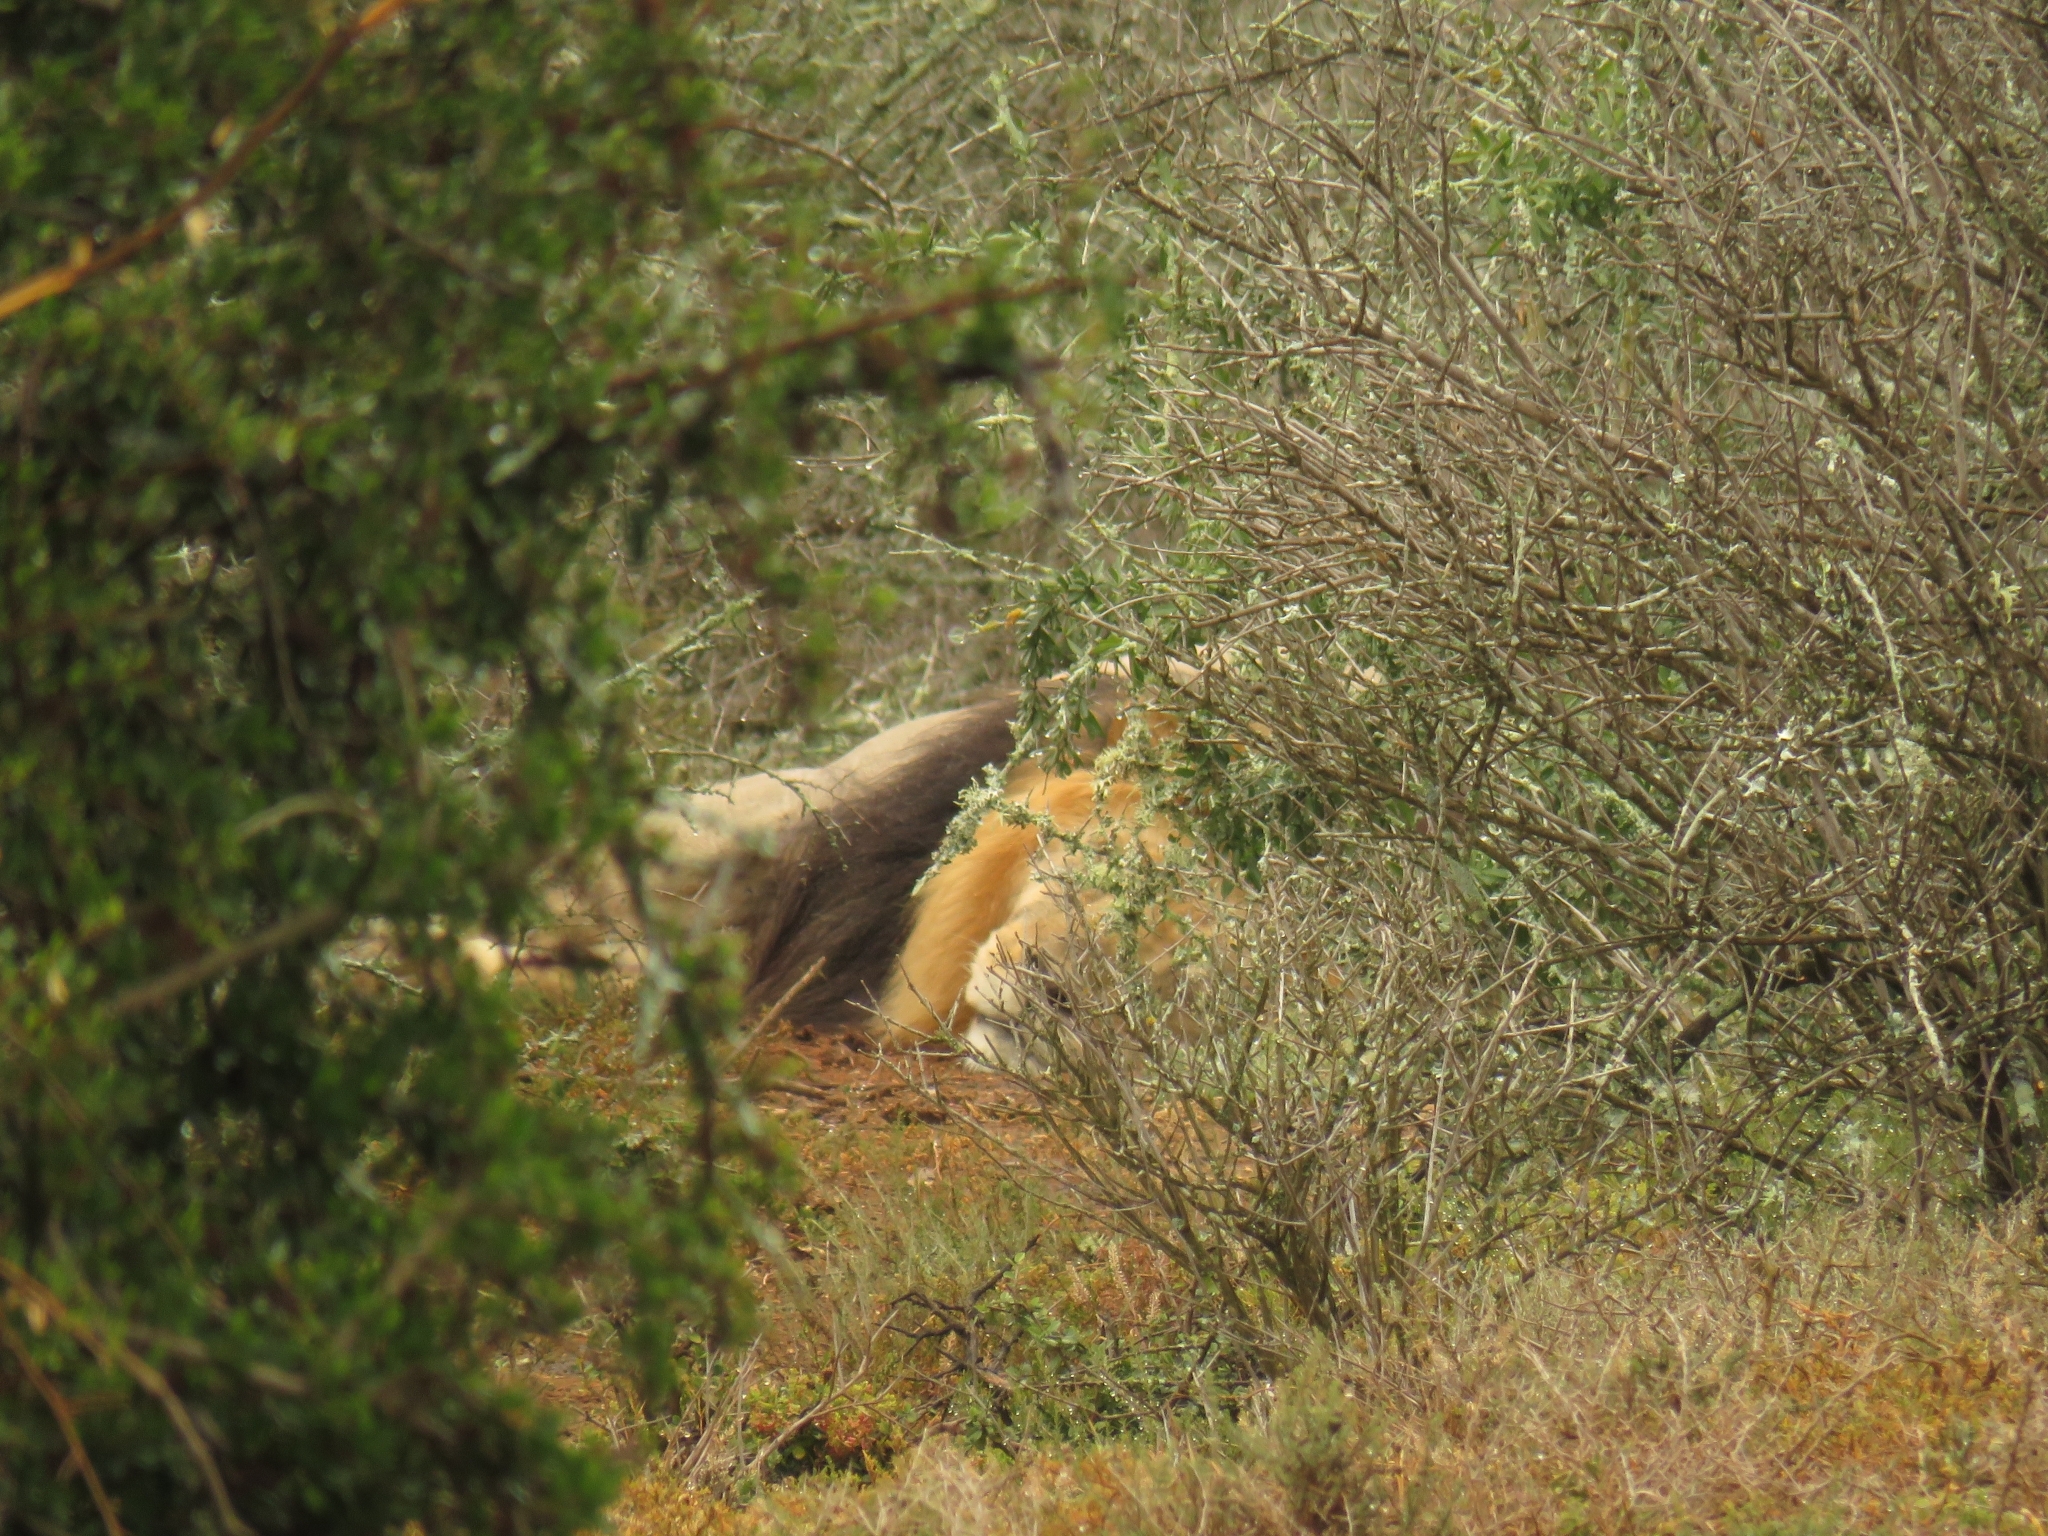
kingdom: Animalia
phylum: Chordata
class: Mammalia
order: Carnivora
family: Felidae
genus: Panthera
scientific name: Panthera leo
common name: Lion
